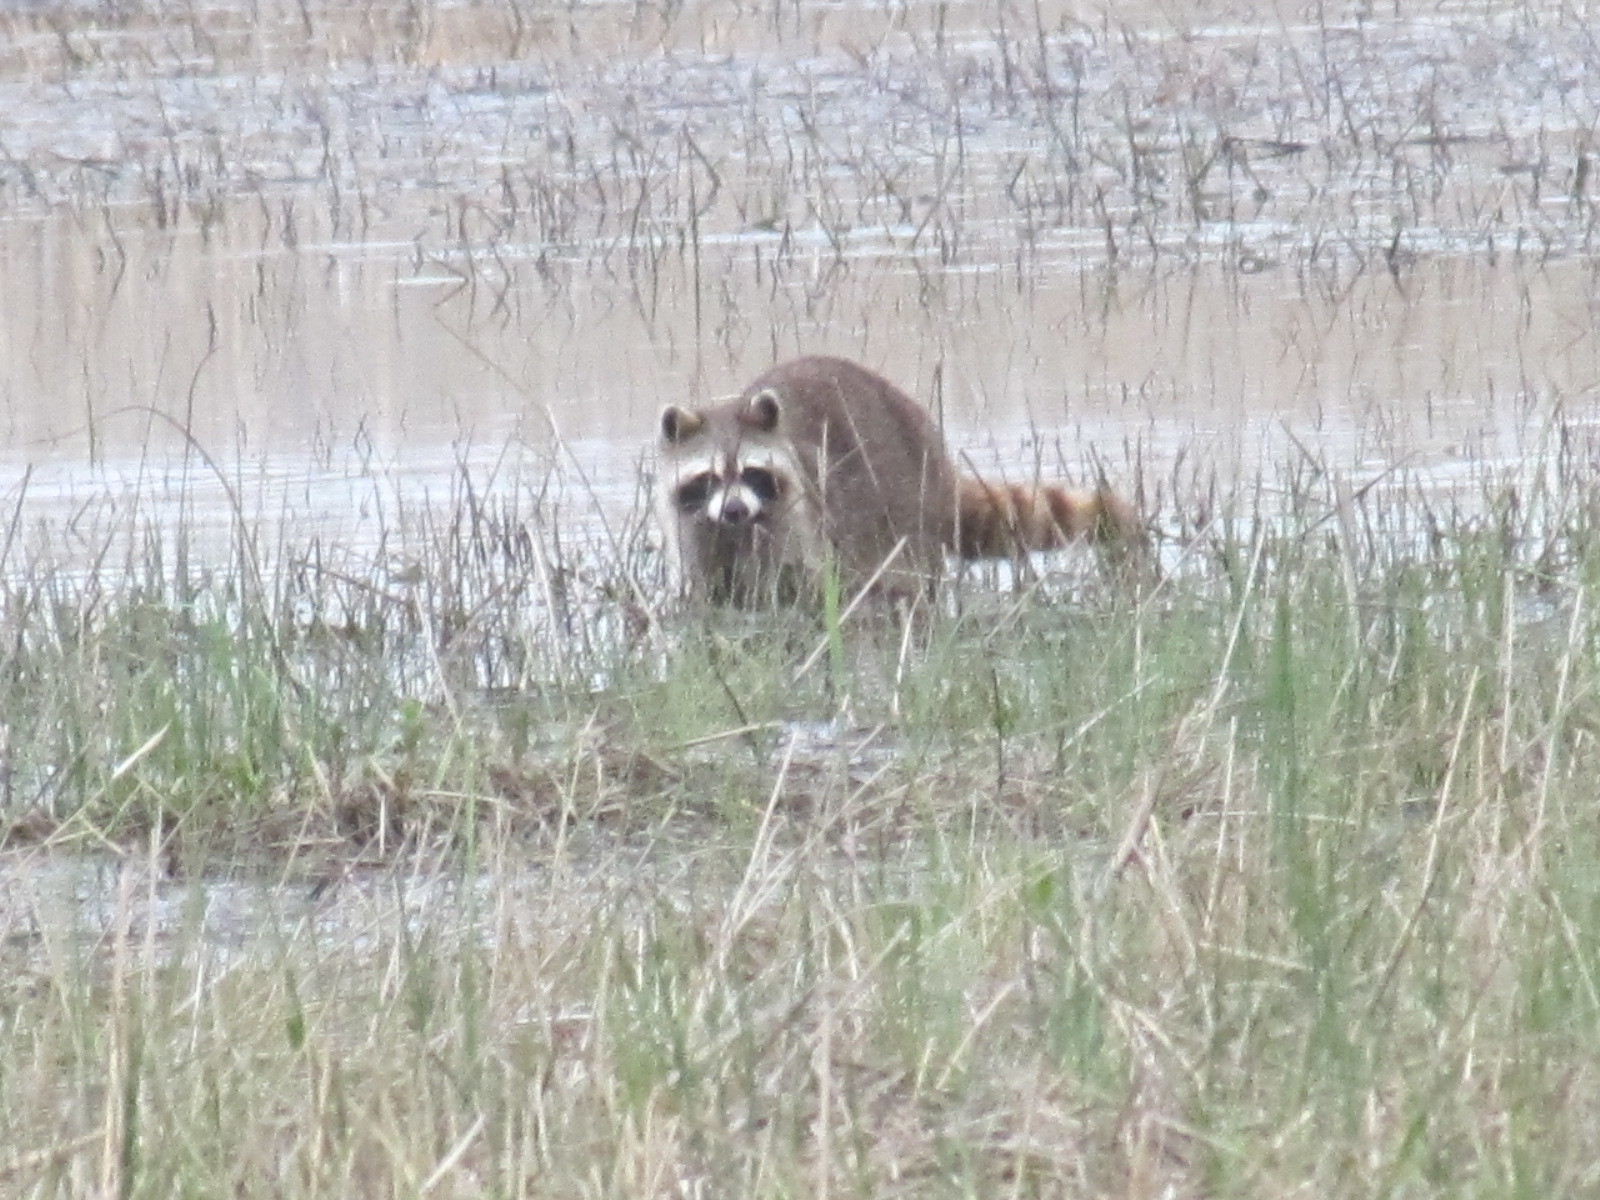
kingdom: Animalia
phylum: Chordata
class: Mammalia
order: Carnivora
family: Procyonidae
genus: Procyon
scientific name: Procyon lotor
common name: Raccoon
